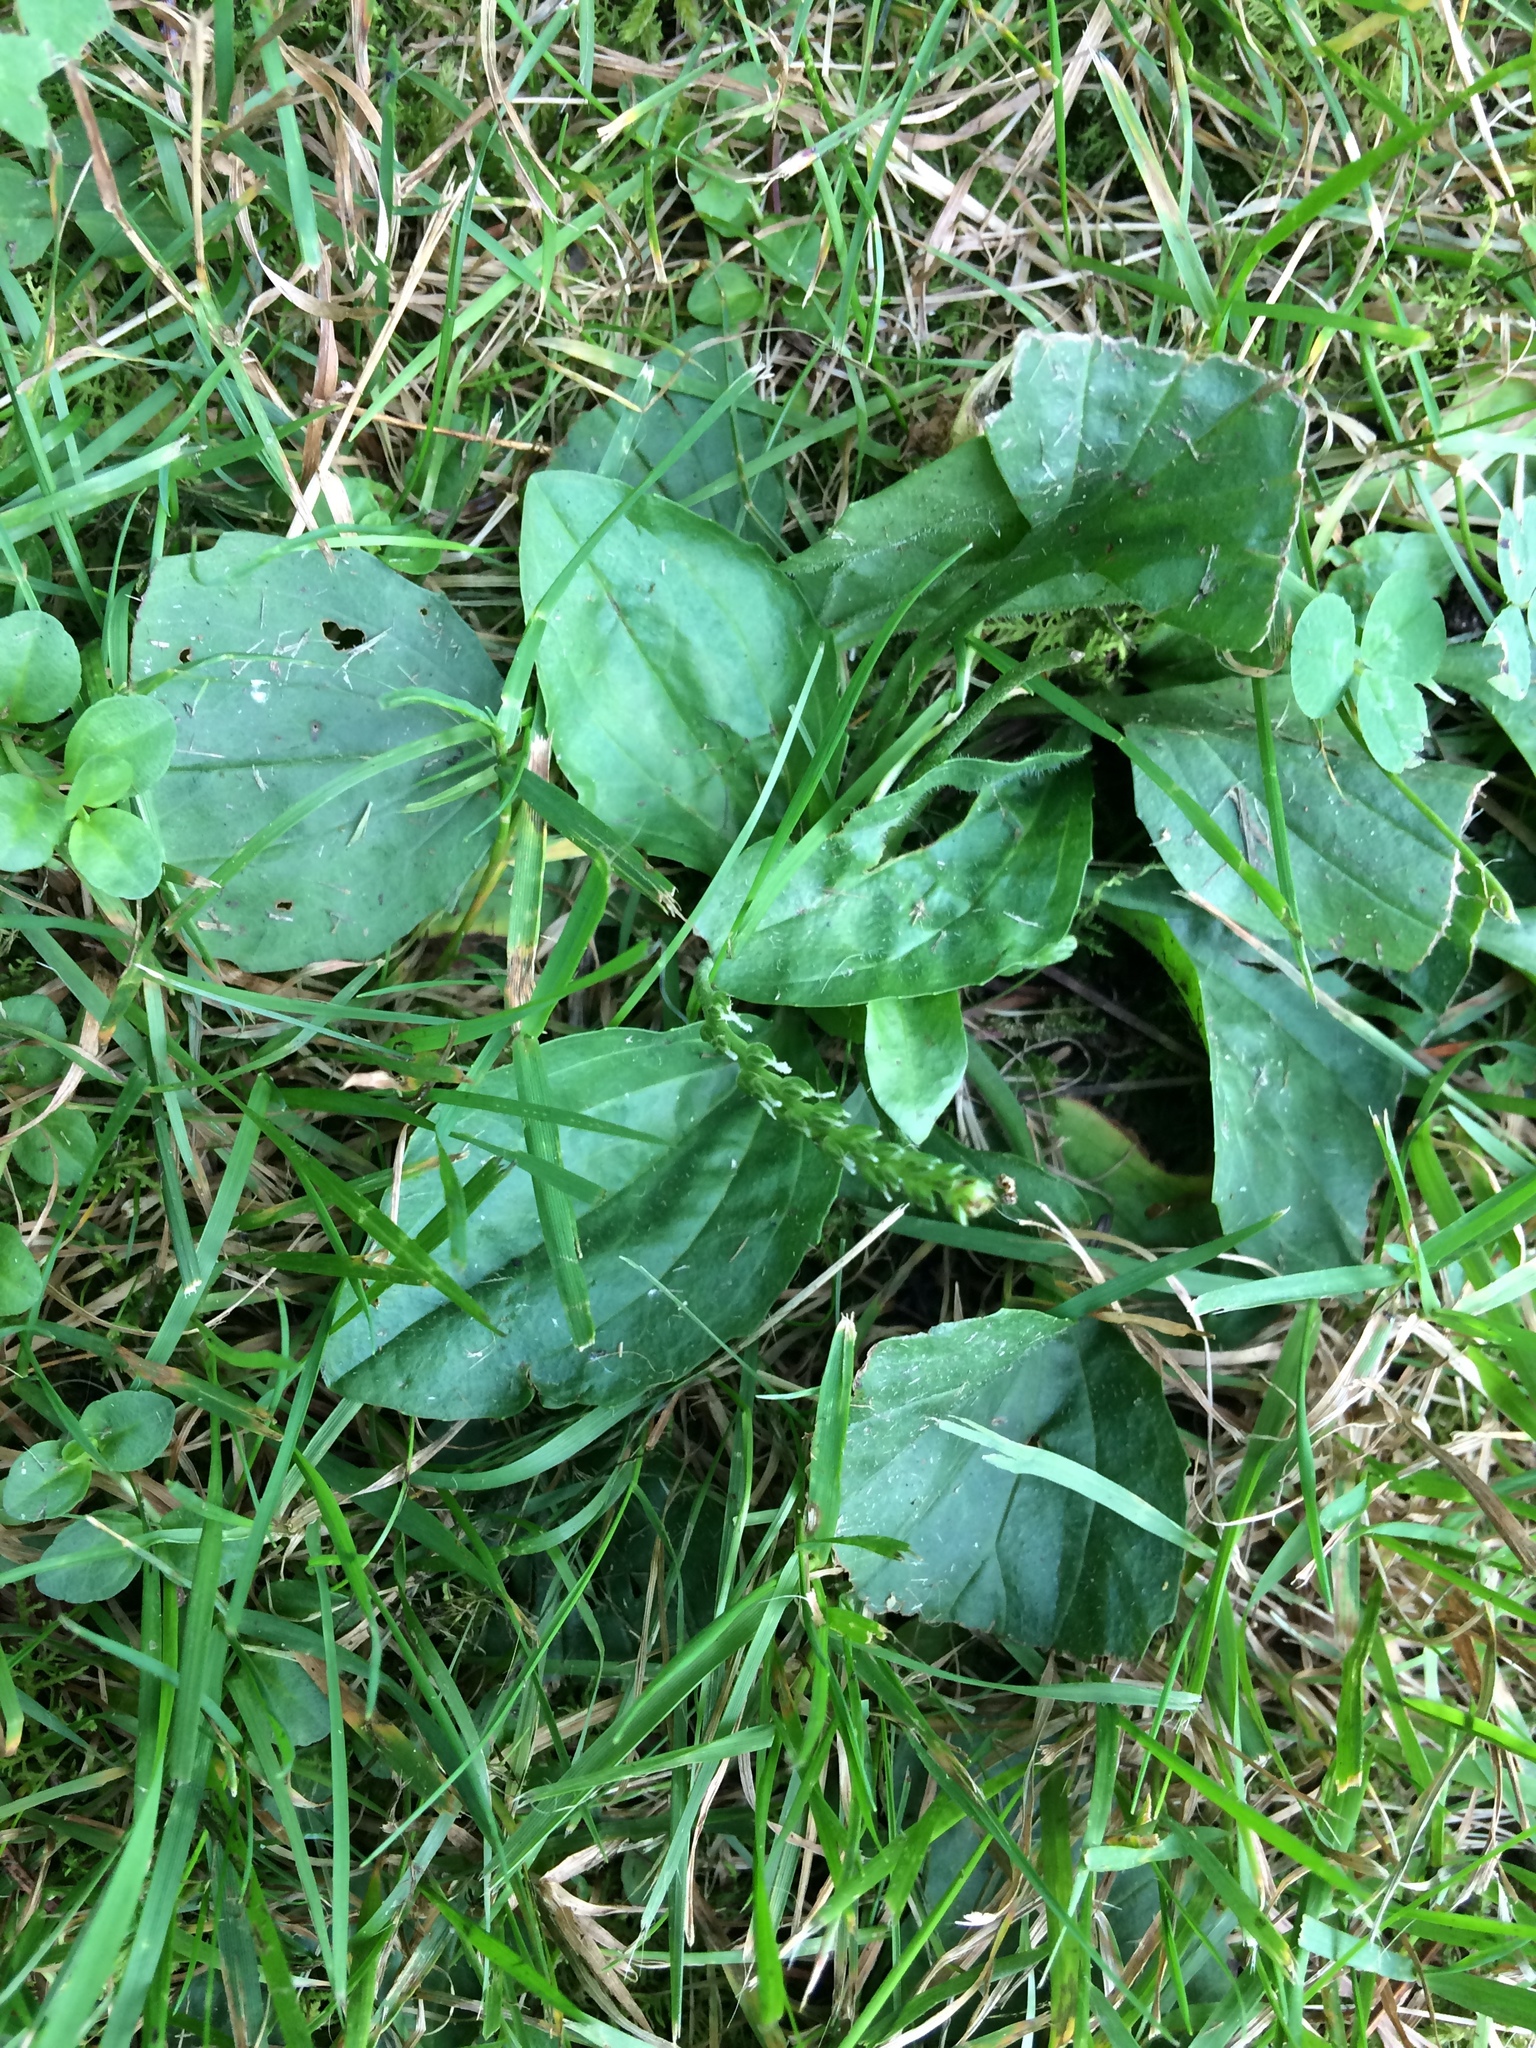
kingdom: Plantae
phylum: Tracheophyta
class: Magnoliopsida
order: Lamiales
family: Plantaginaceae
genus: Plantago
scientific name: Plantago major
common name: Common plantain
